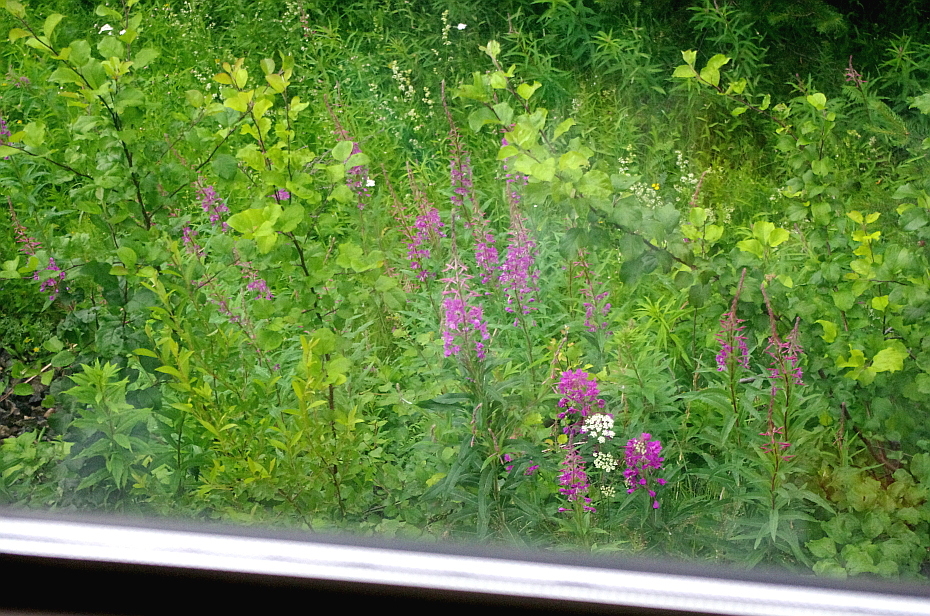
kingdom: Plantae
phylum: Tracheophyta
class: Magnoliopsida
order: Myrtales
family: Onagraceae
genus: Chamaenerion
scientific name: Chamaenerion angustifolium
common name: Fireweed
